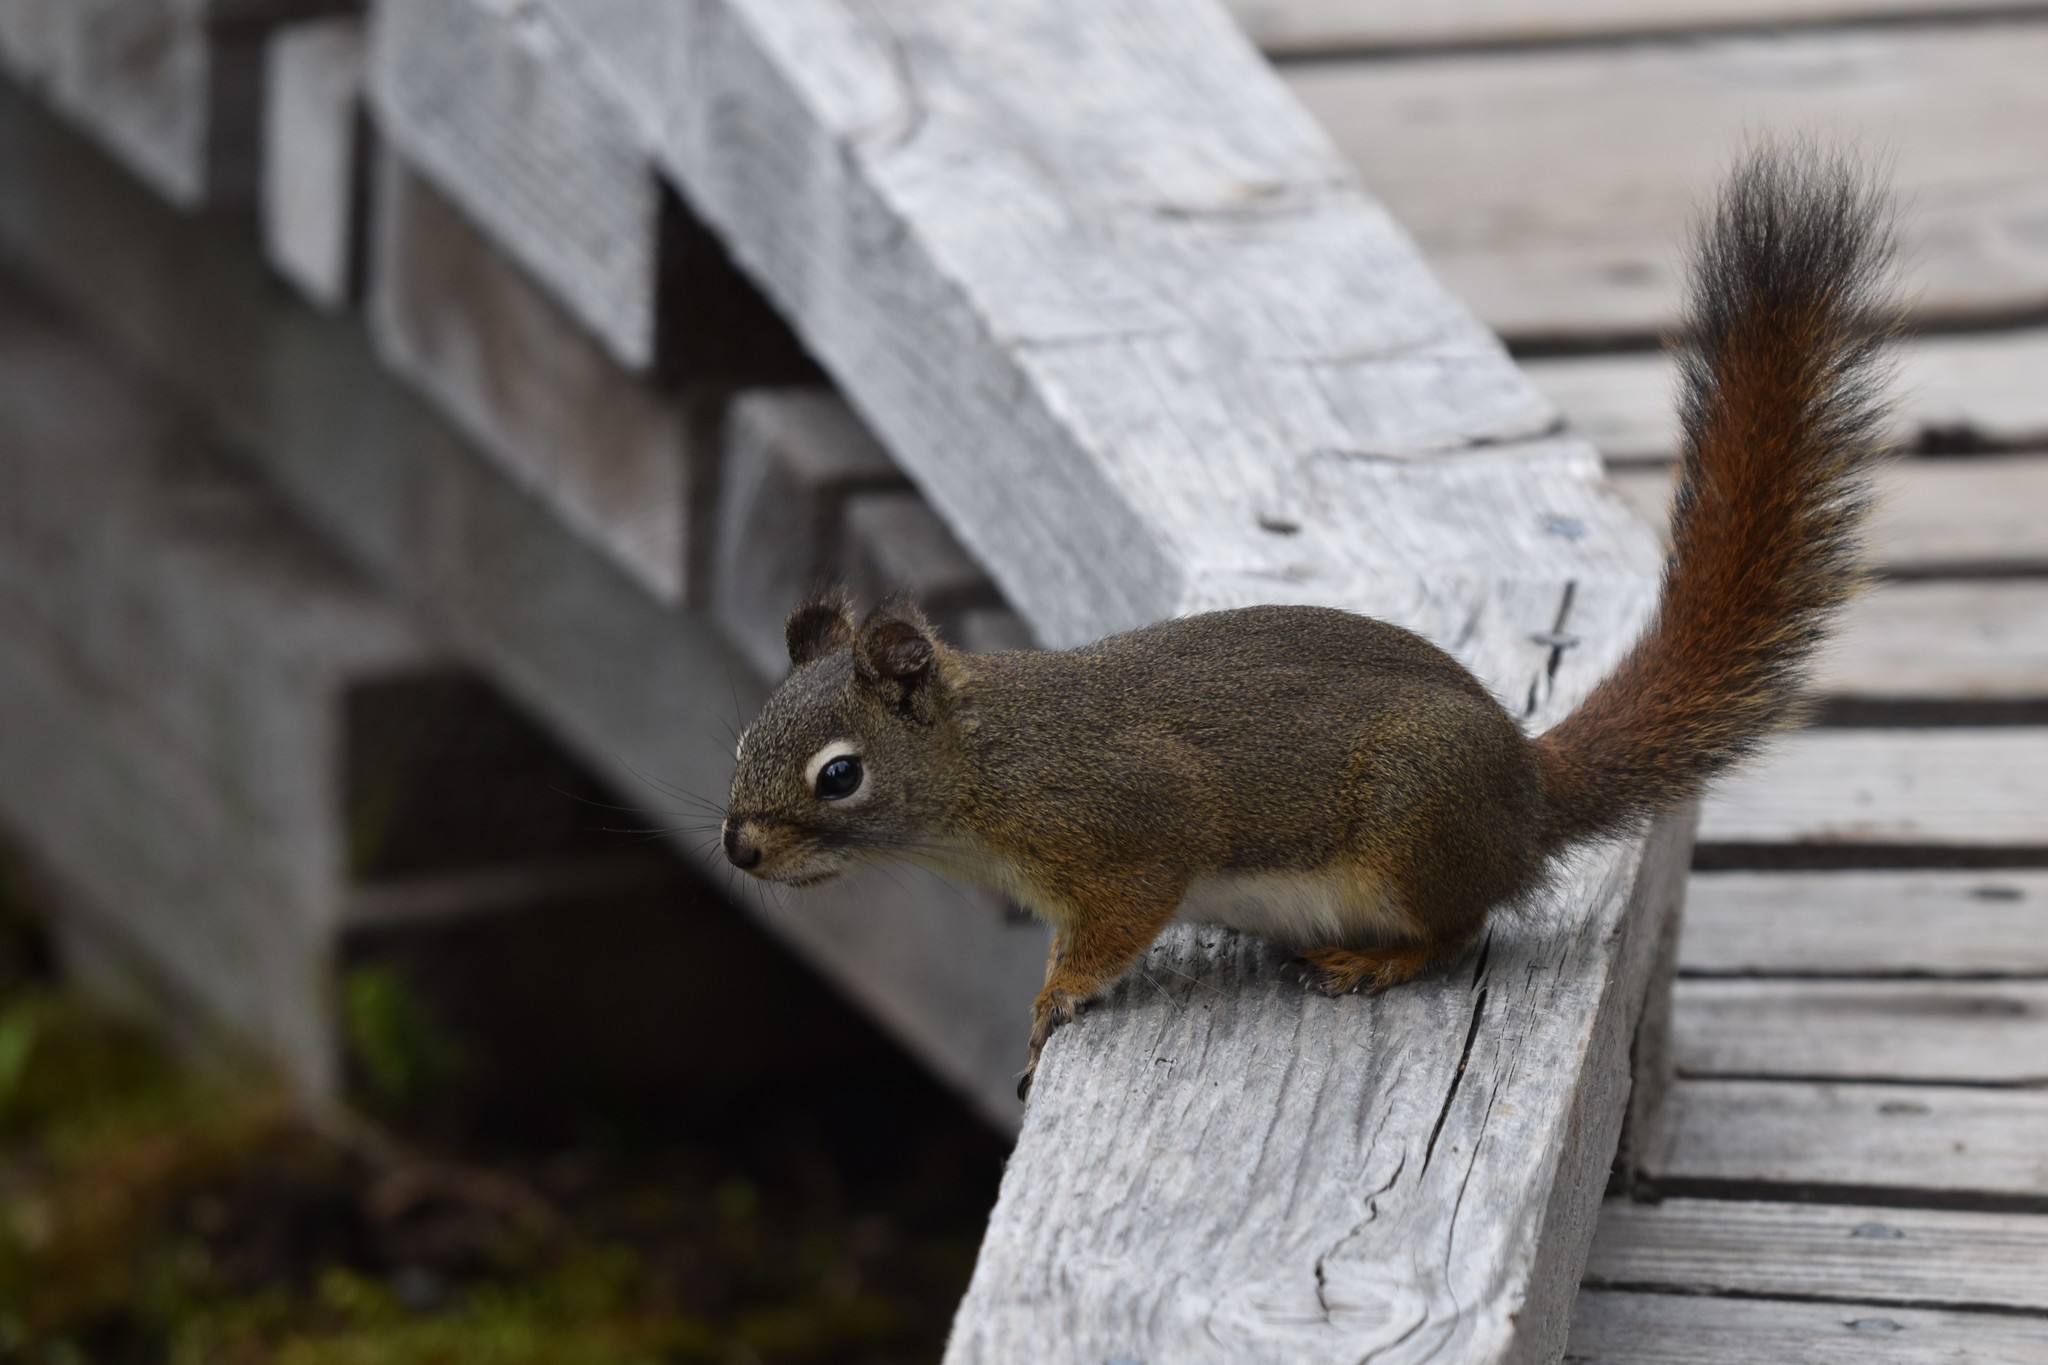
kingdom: Animalia
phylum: Chordata
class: Mammalia
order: Rodentia
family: Sciuridae
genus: Tamiasciurus
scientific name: Tamiasciurus hudsonicus
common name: Red squirrel
